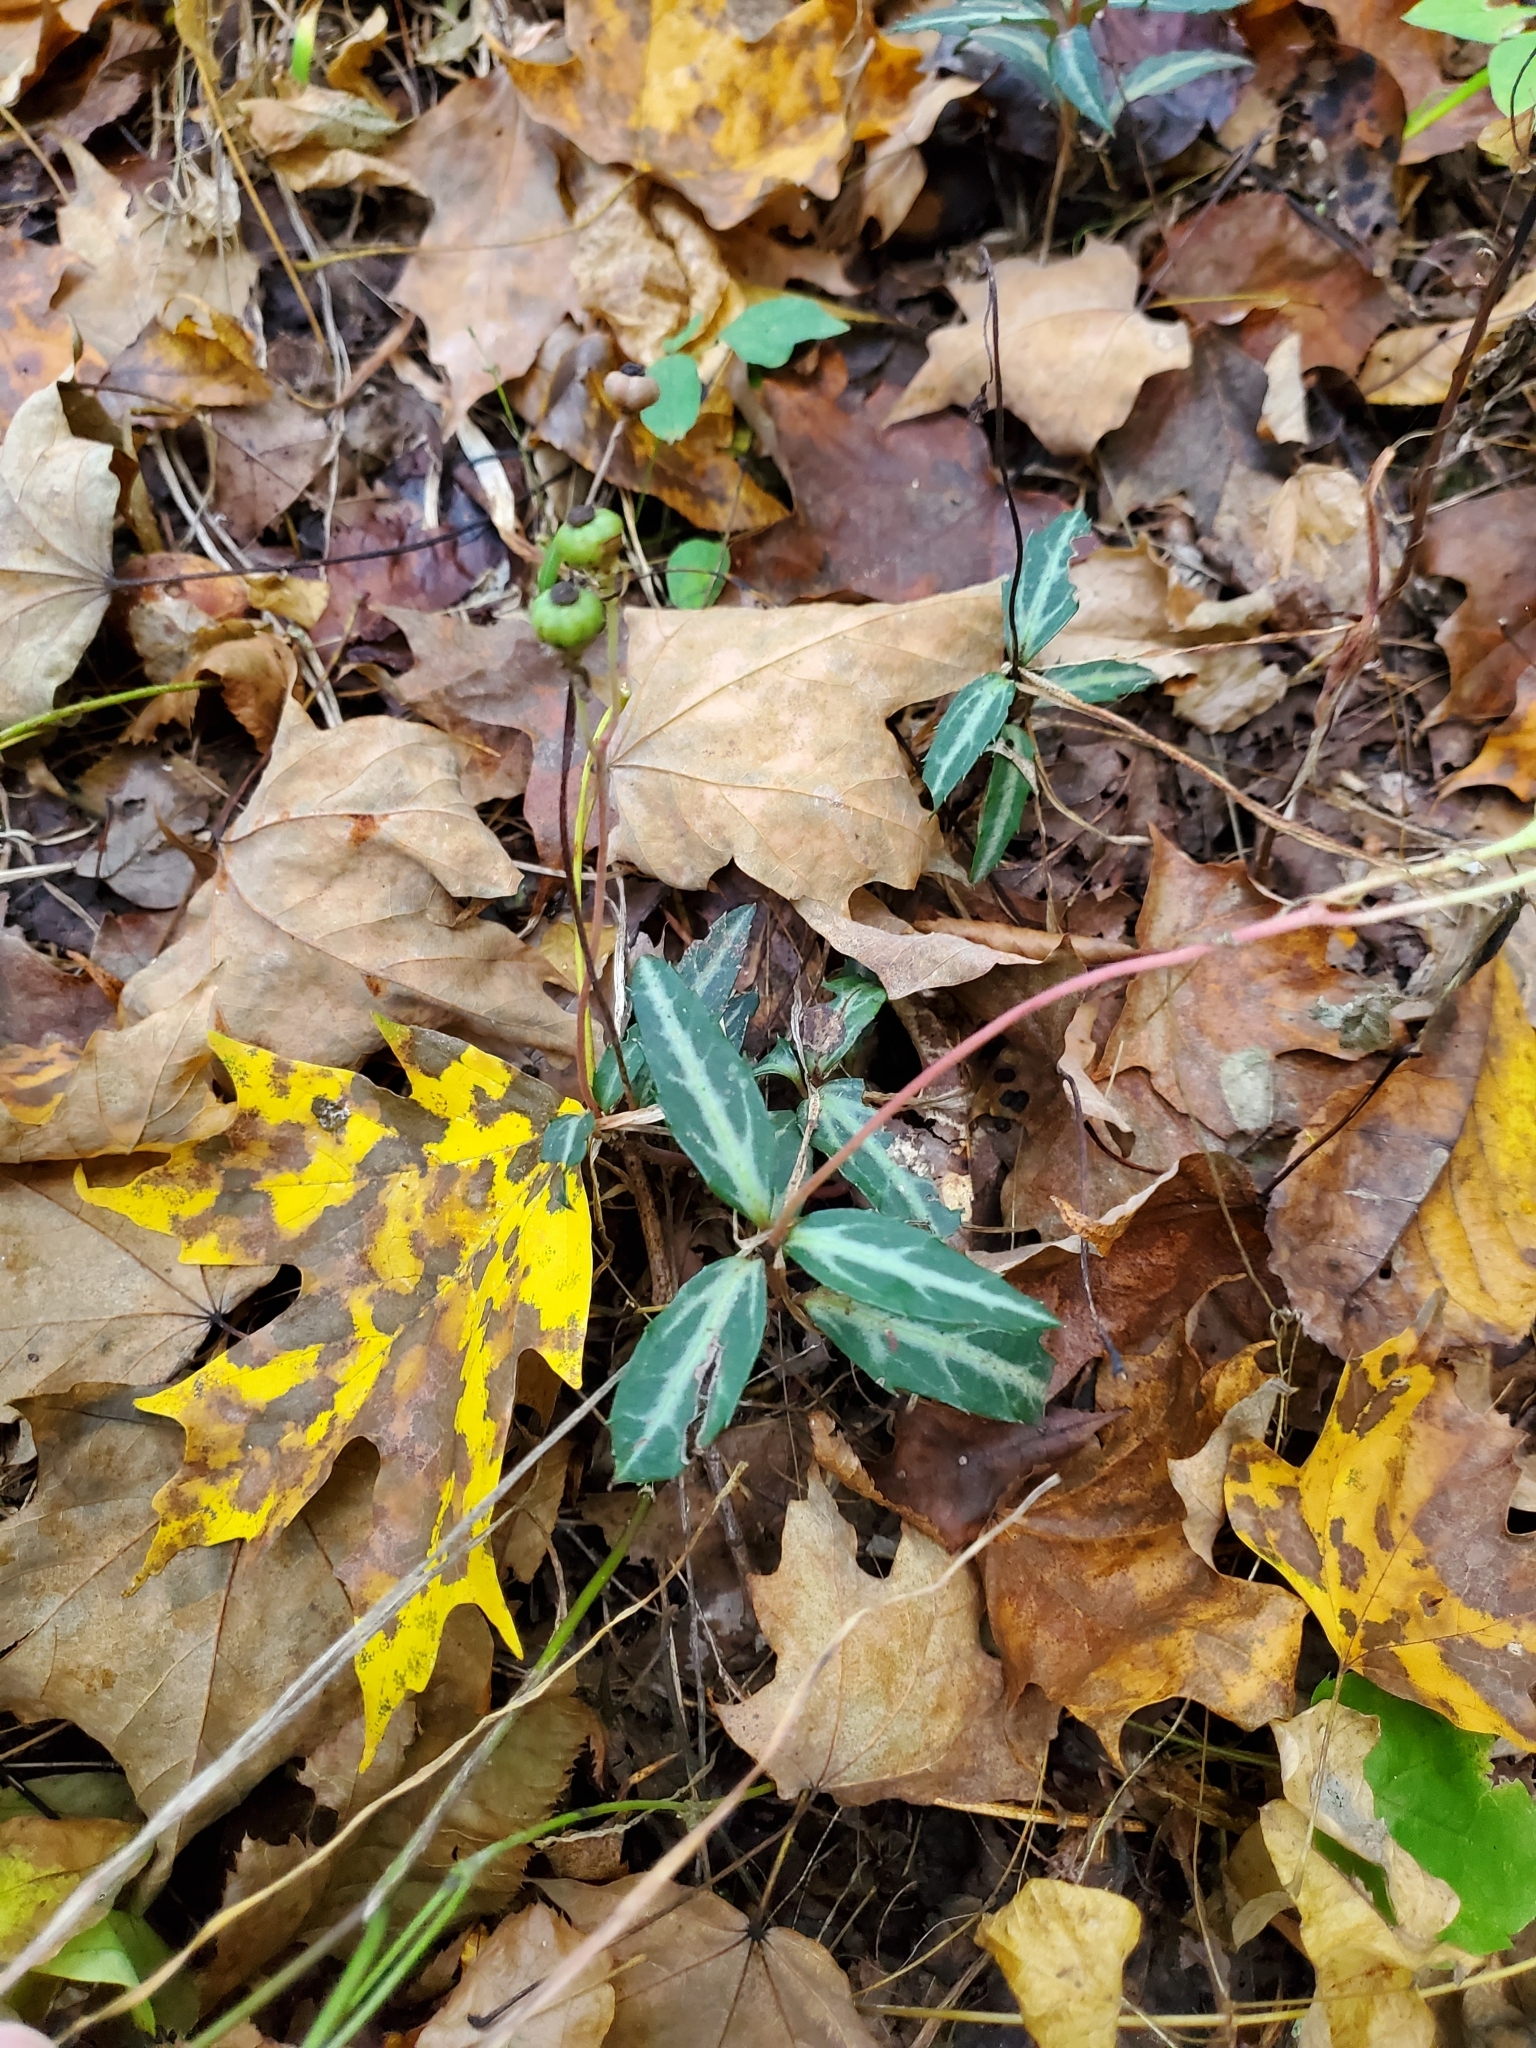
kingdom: Plantae
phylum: Tracheophyta
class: Magnoliopsida
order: Ericales
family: Ericaceae
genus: Chimaphila
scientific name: Chimaphila maculata
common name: Spotted pipsissewa
